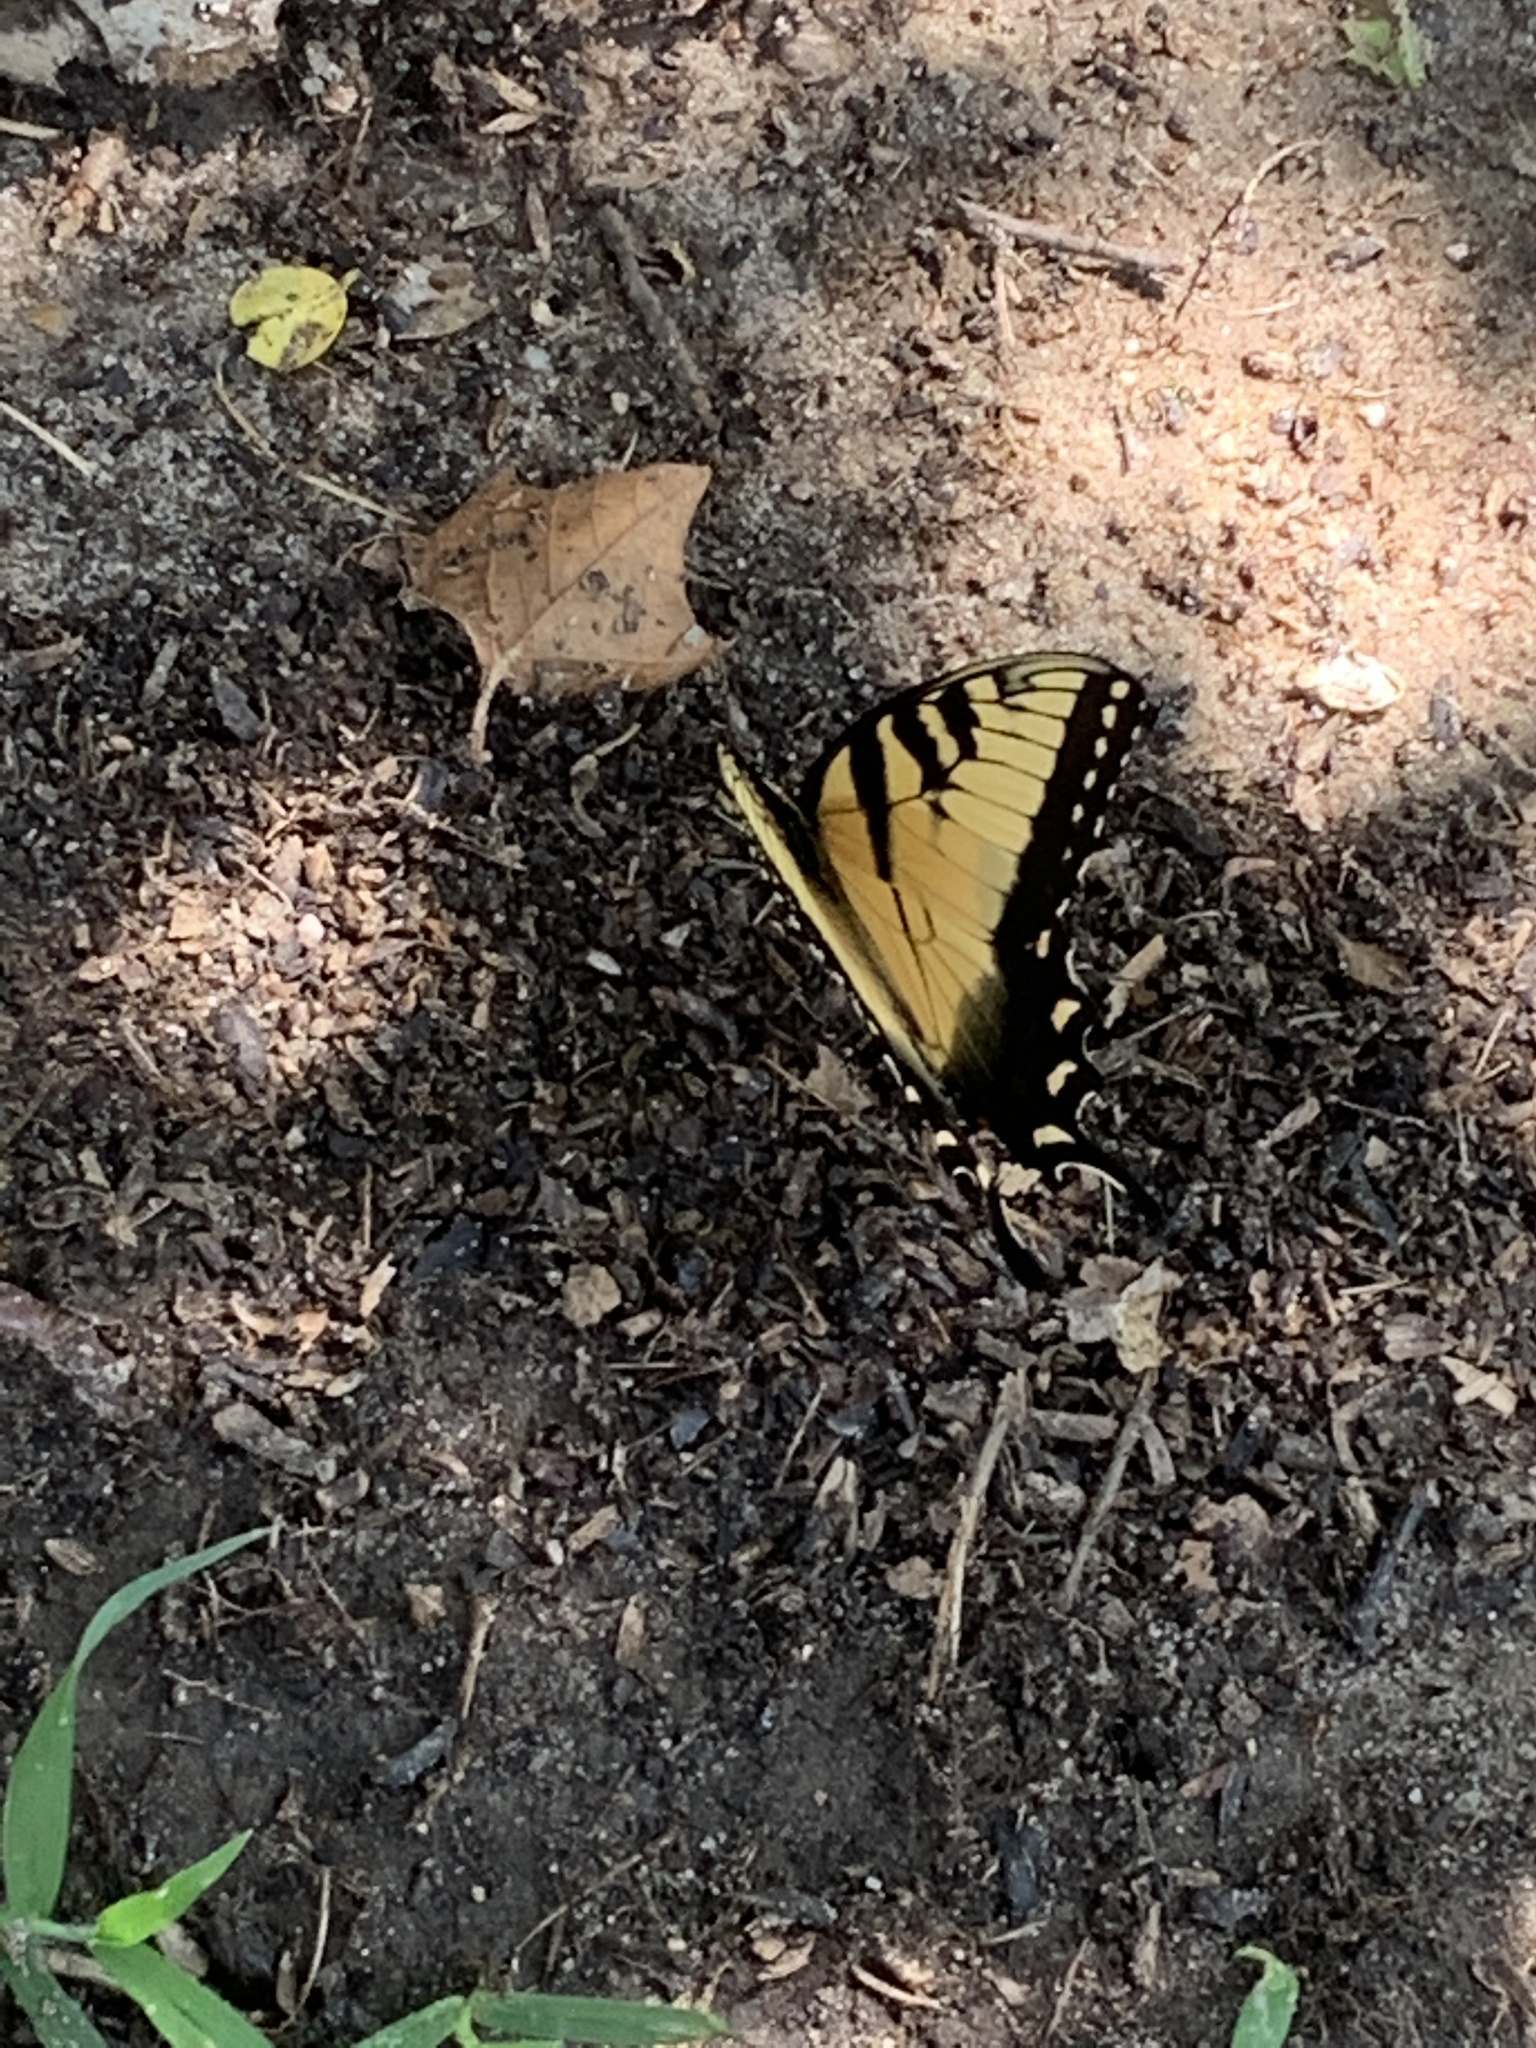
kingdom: Animalia
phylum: Arthropoda
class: Insecta
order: Lepidoptera
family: Papilionidae
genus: Papilio
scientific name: Papilio glaucus
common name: Tiger swallowtail
